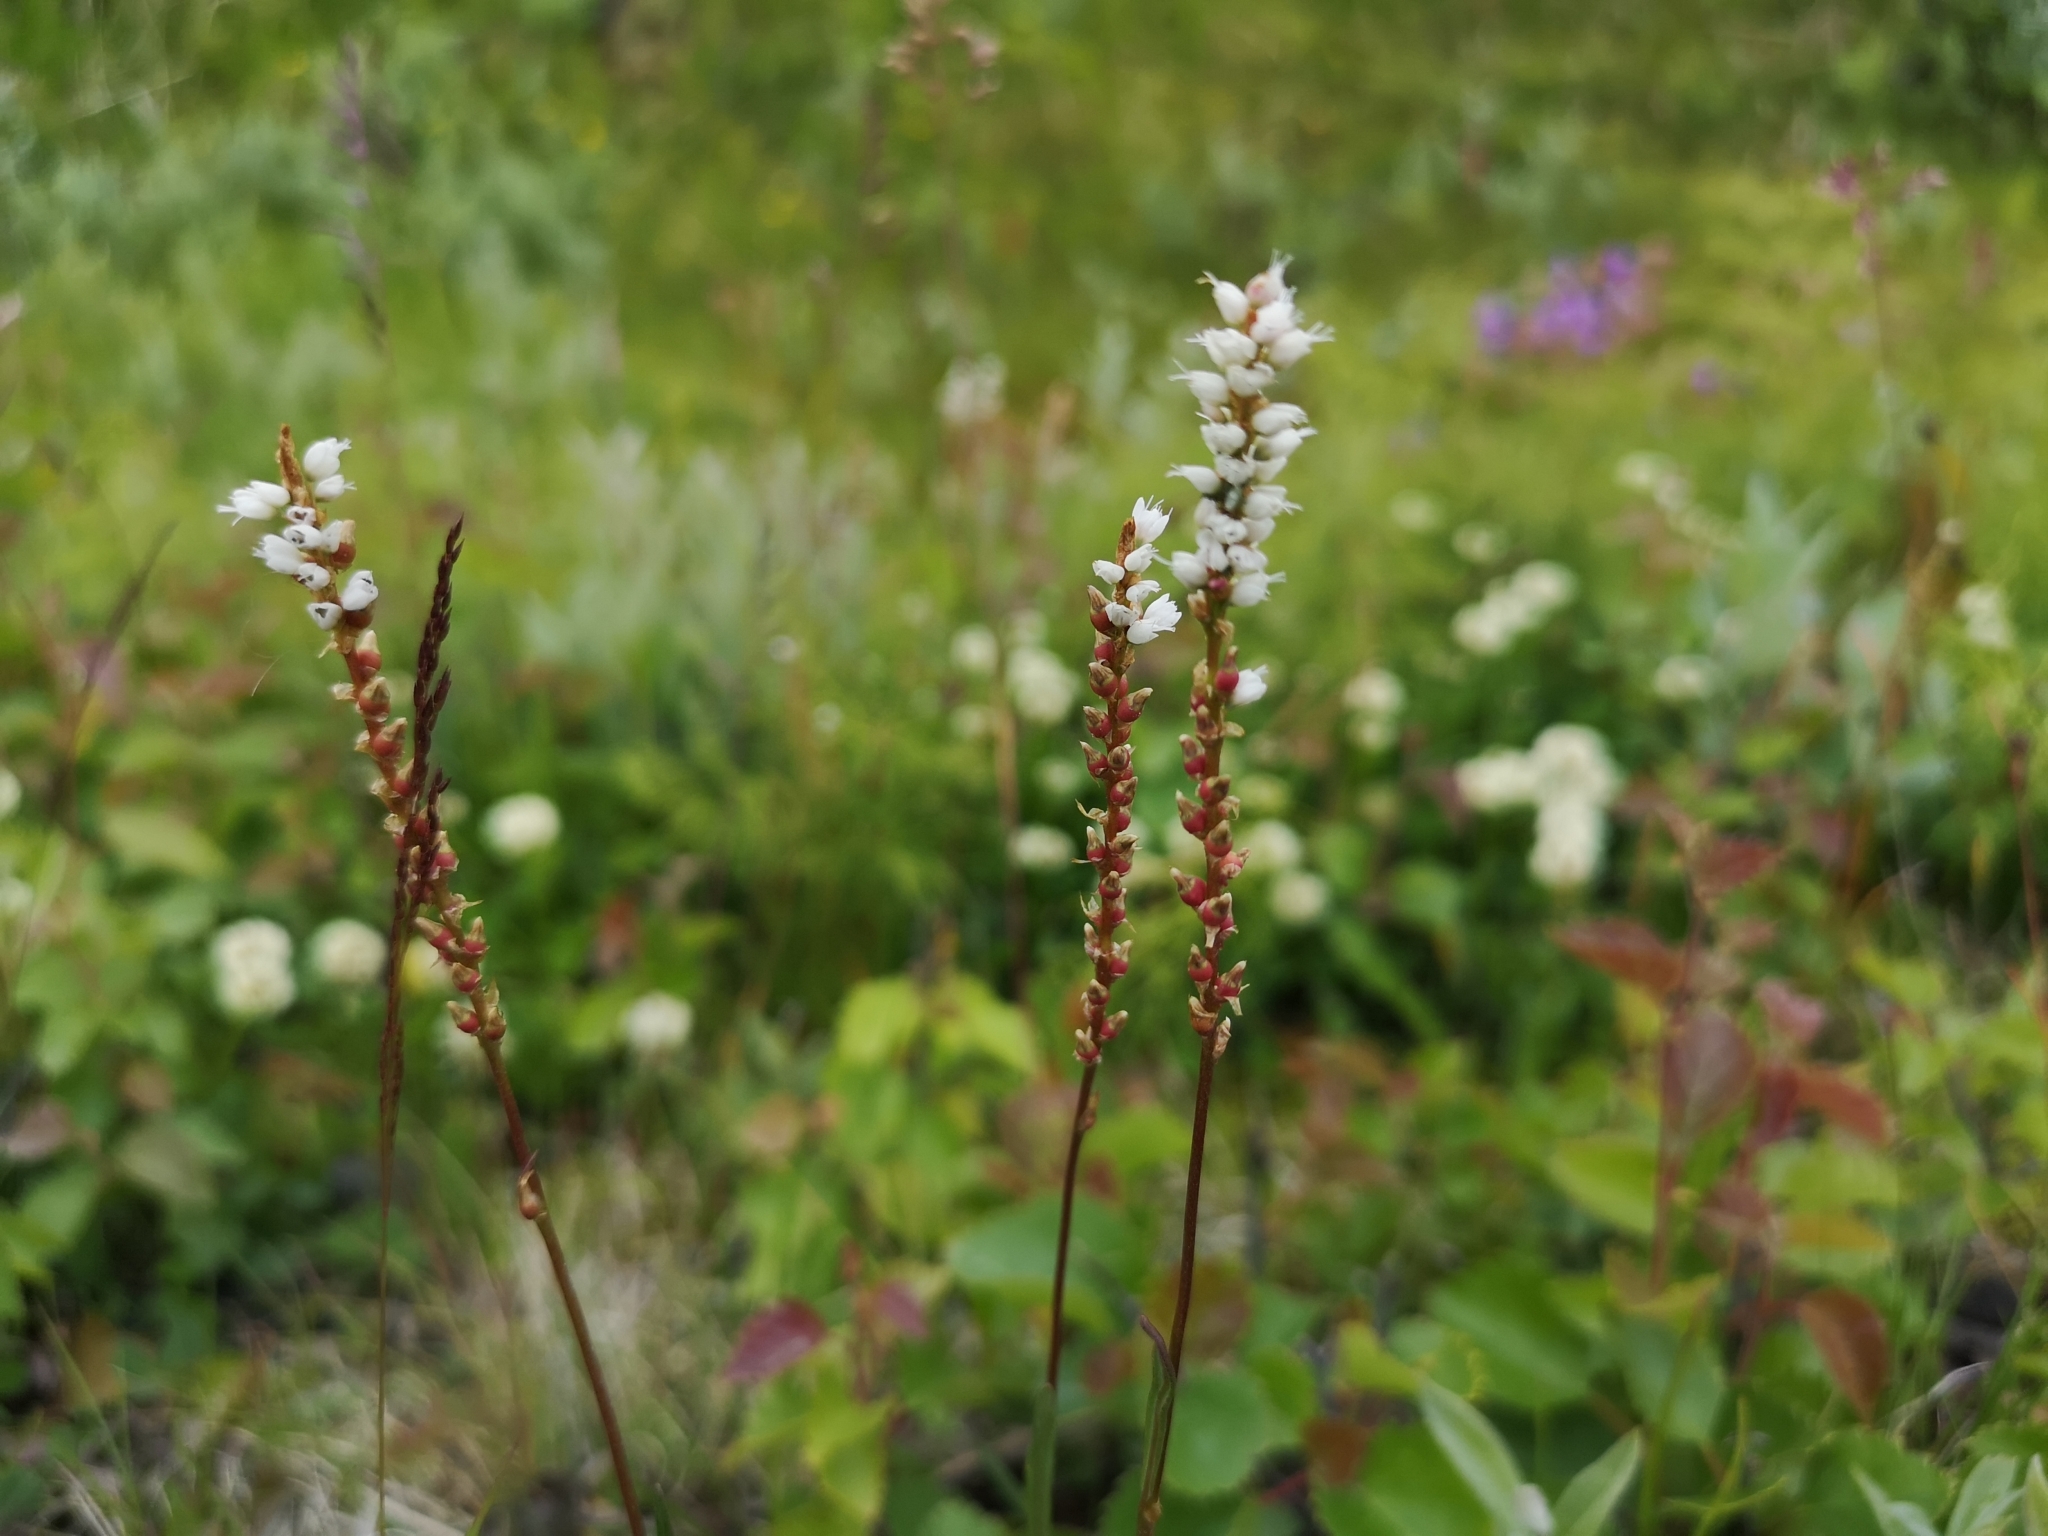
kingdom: Plantae
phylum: Tracheophyta
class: Magnoliopsida
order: Caryophyllales
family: Polygonaceae
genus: Bistorta
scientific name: Bistorta vivipara
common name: Alpine bistort
